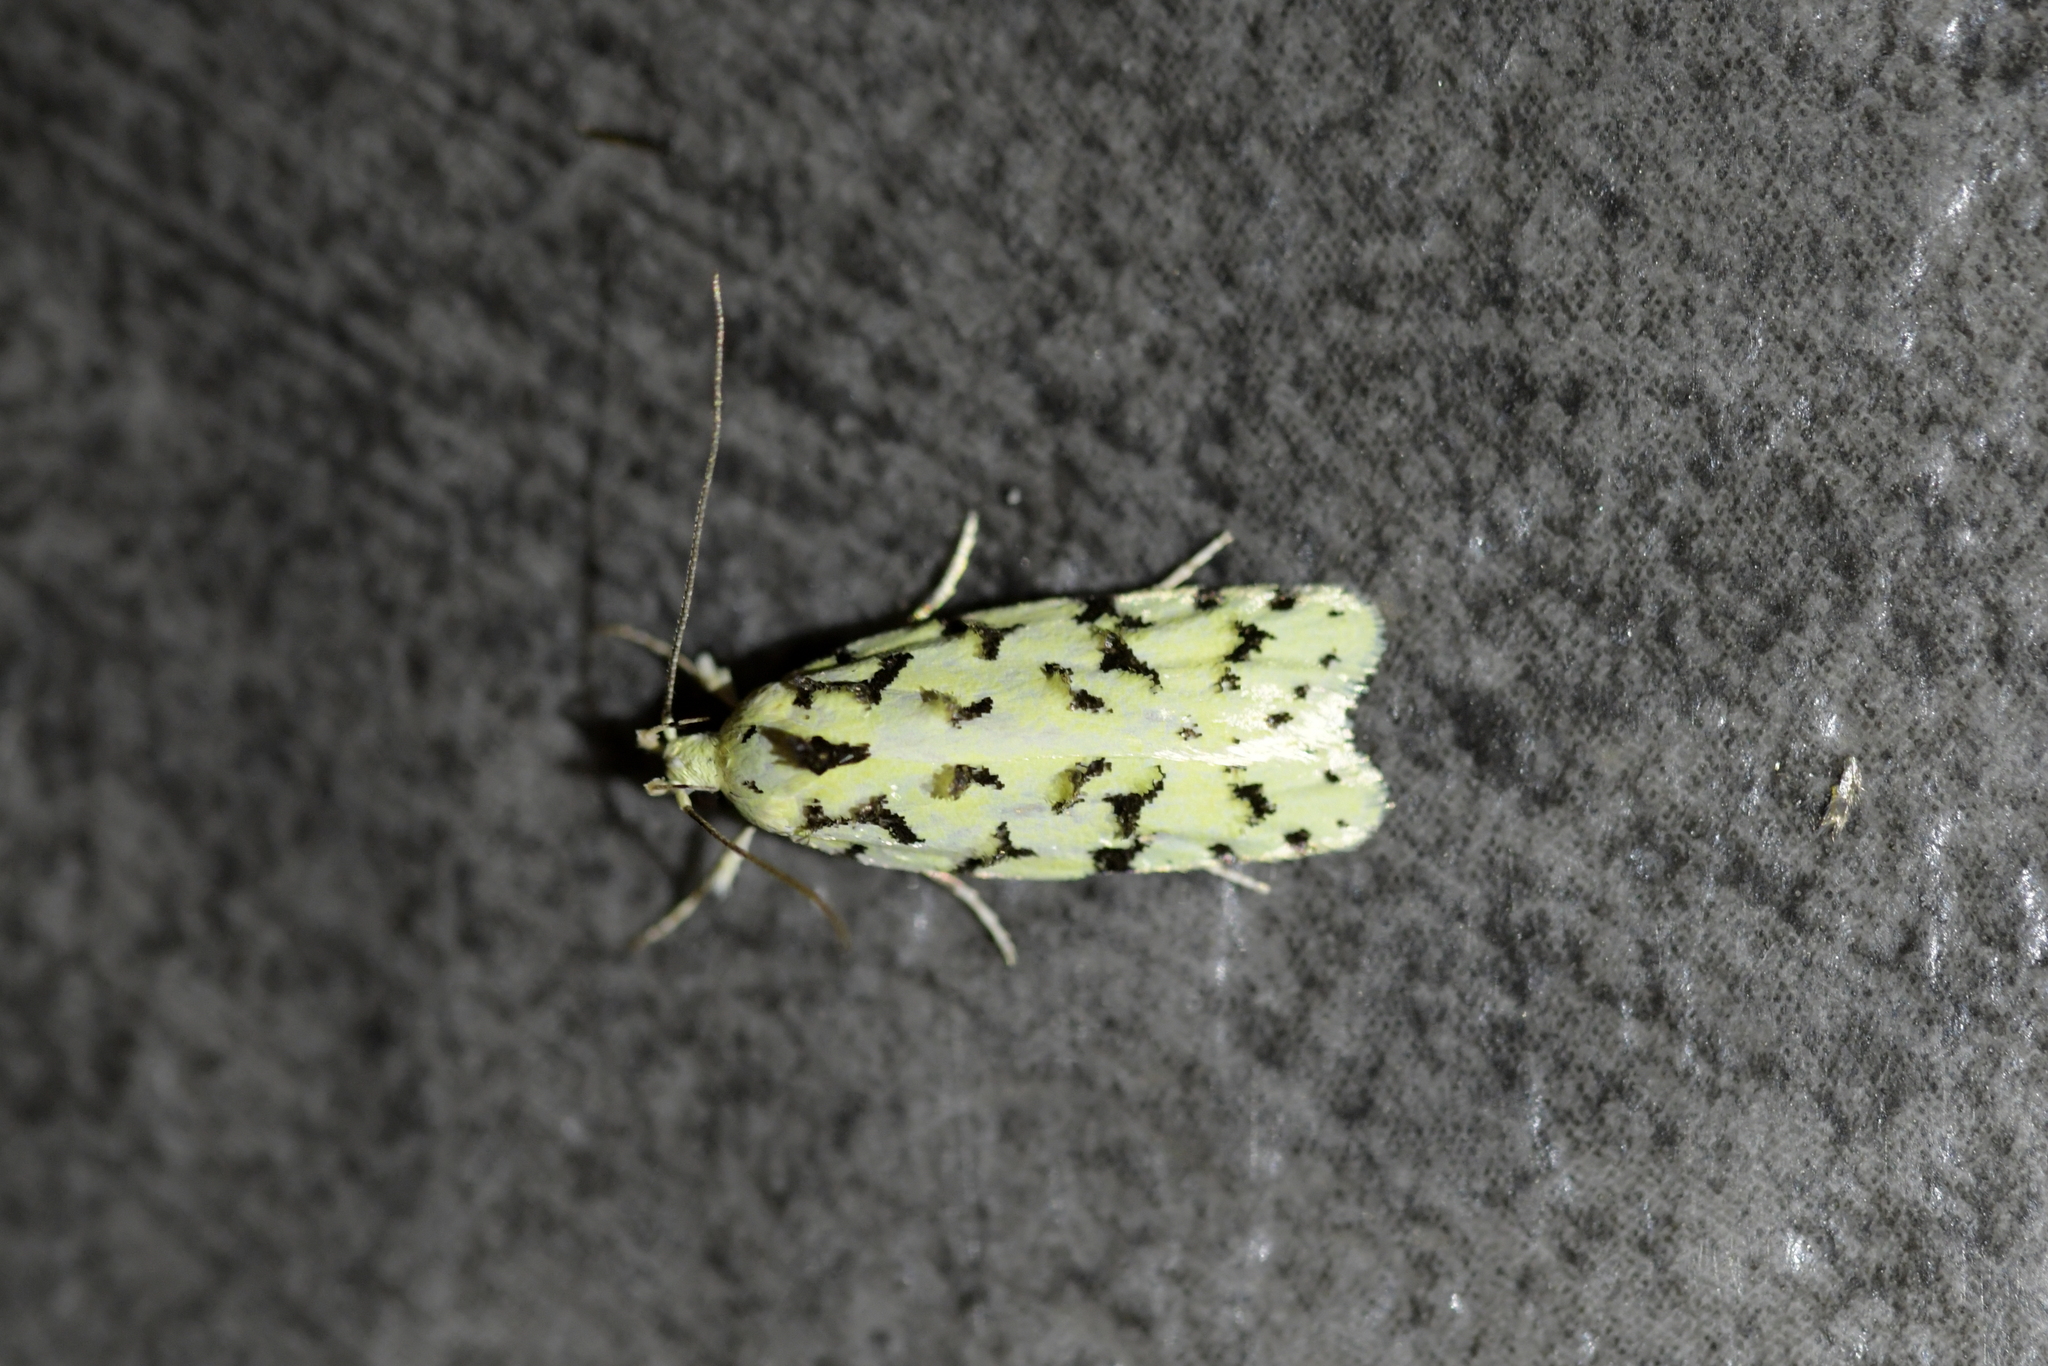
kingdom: Animalia
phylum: Arthropoda
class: Insecta
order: Lepidoptera
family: Oecophoridae
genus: Izatha
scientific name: Izatha peroneanella
